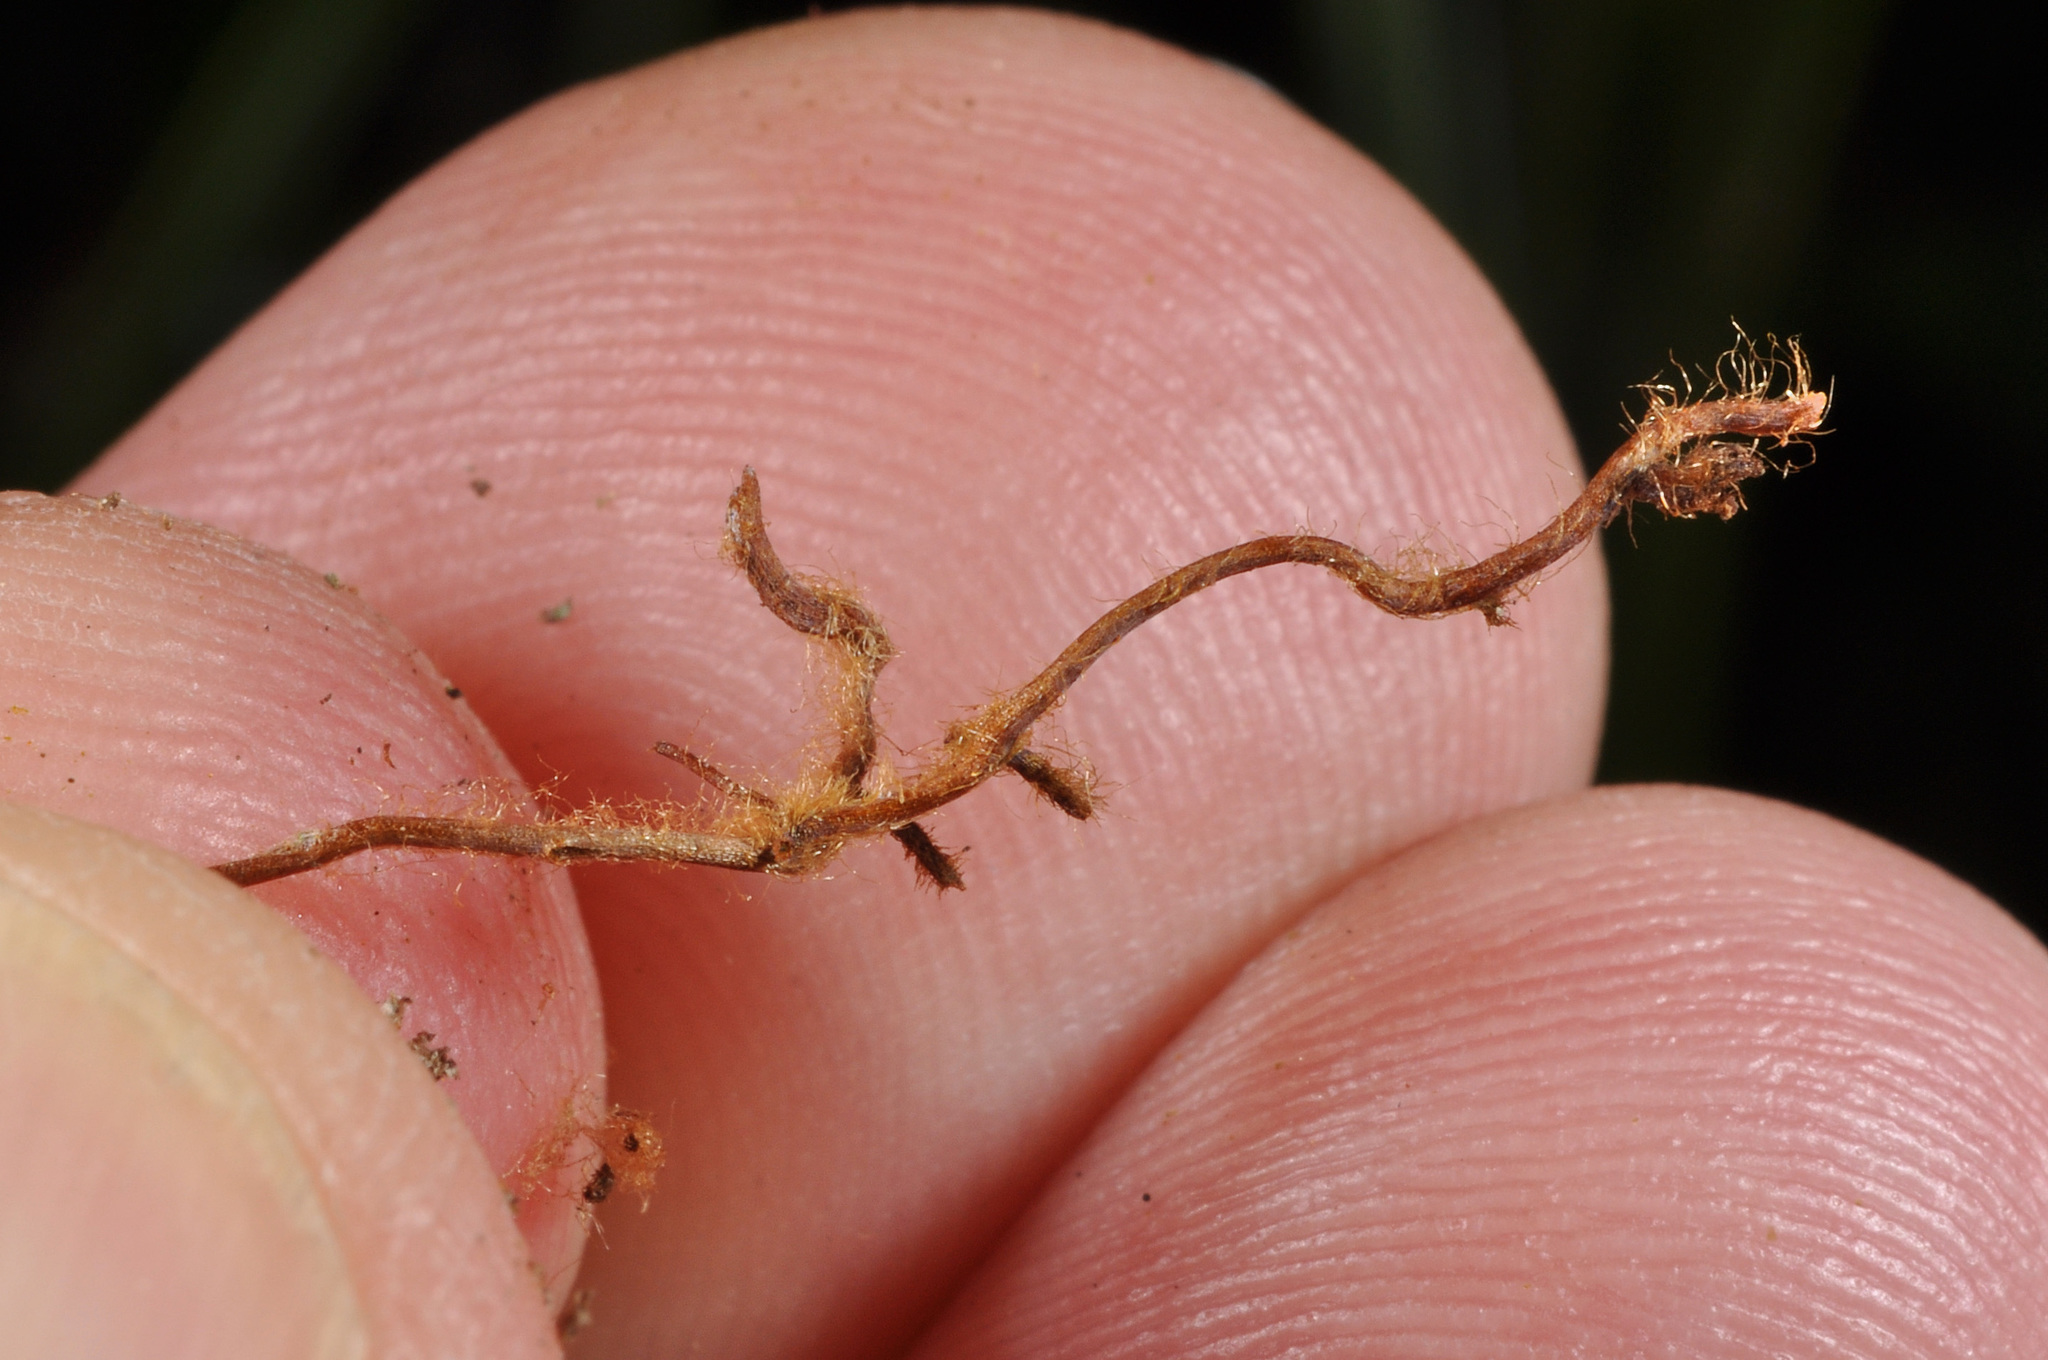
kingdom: Plantae
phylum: Tracheophyta
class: Polypodiopsida
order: Hymenophyllales
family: Hymenophyllaceae
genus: Hymenophyllum
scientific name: Hymenophyllum flabellatum
